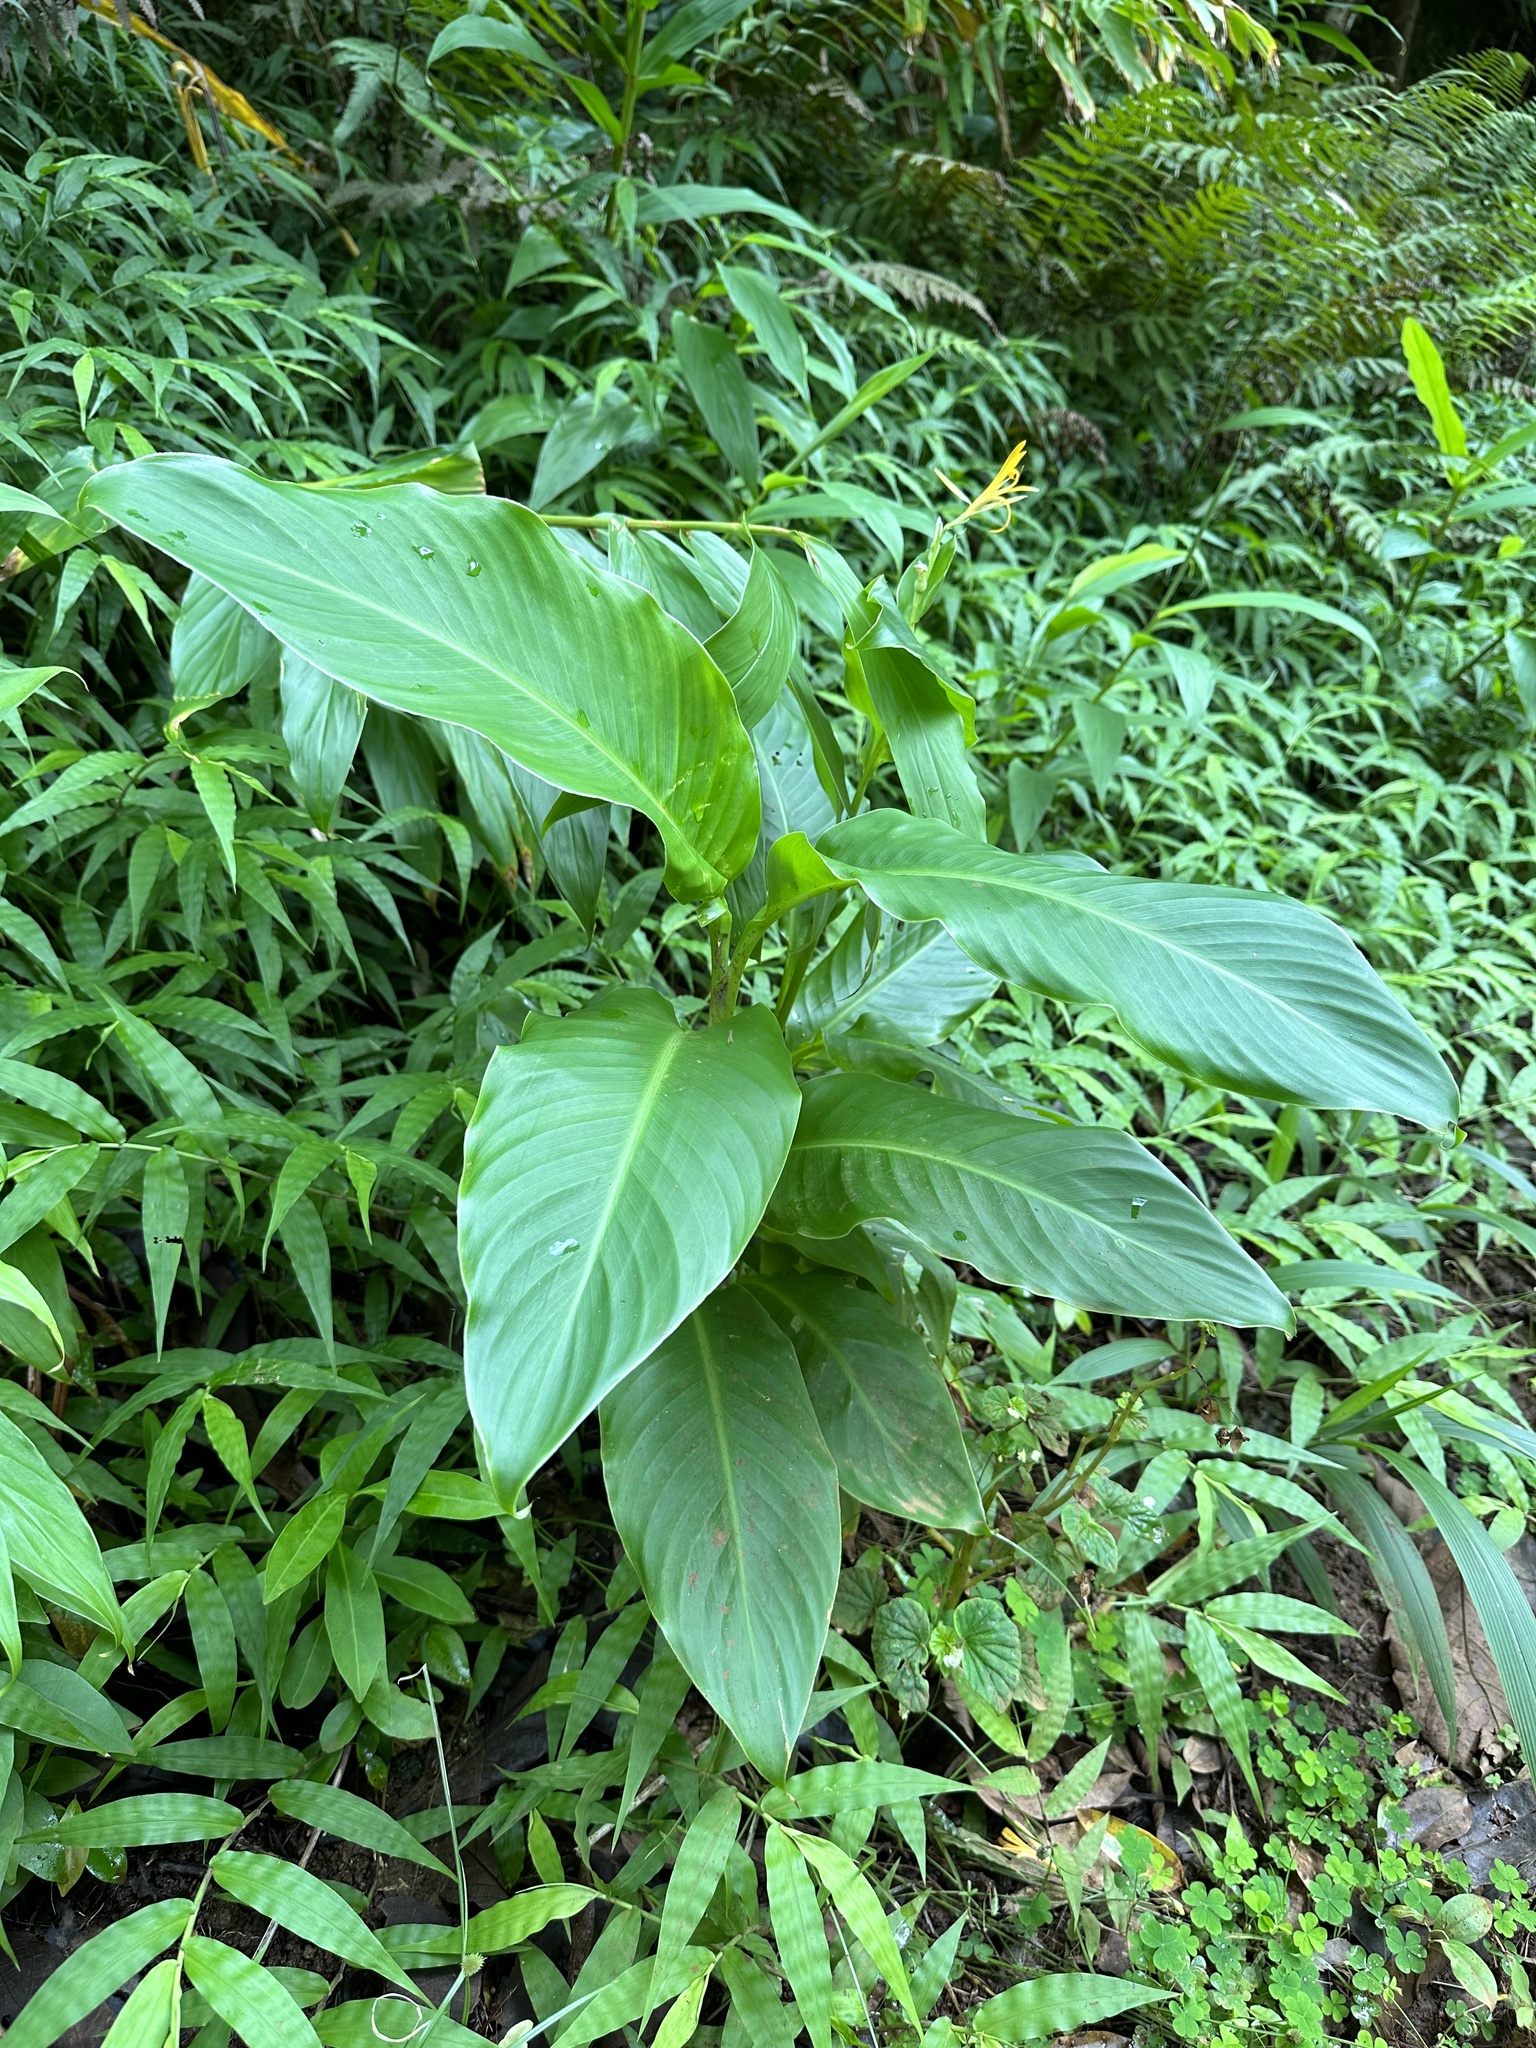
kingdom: Plantae
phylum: Tracheophyta
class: Liliopsida
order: Zingiberales
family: Cannaceae
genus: Canna
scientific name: Canna indica
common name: Indian shot
